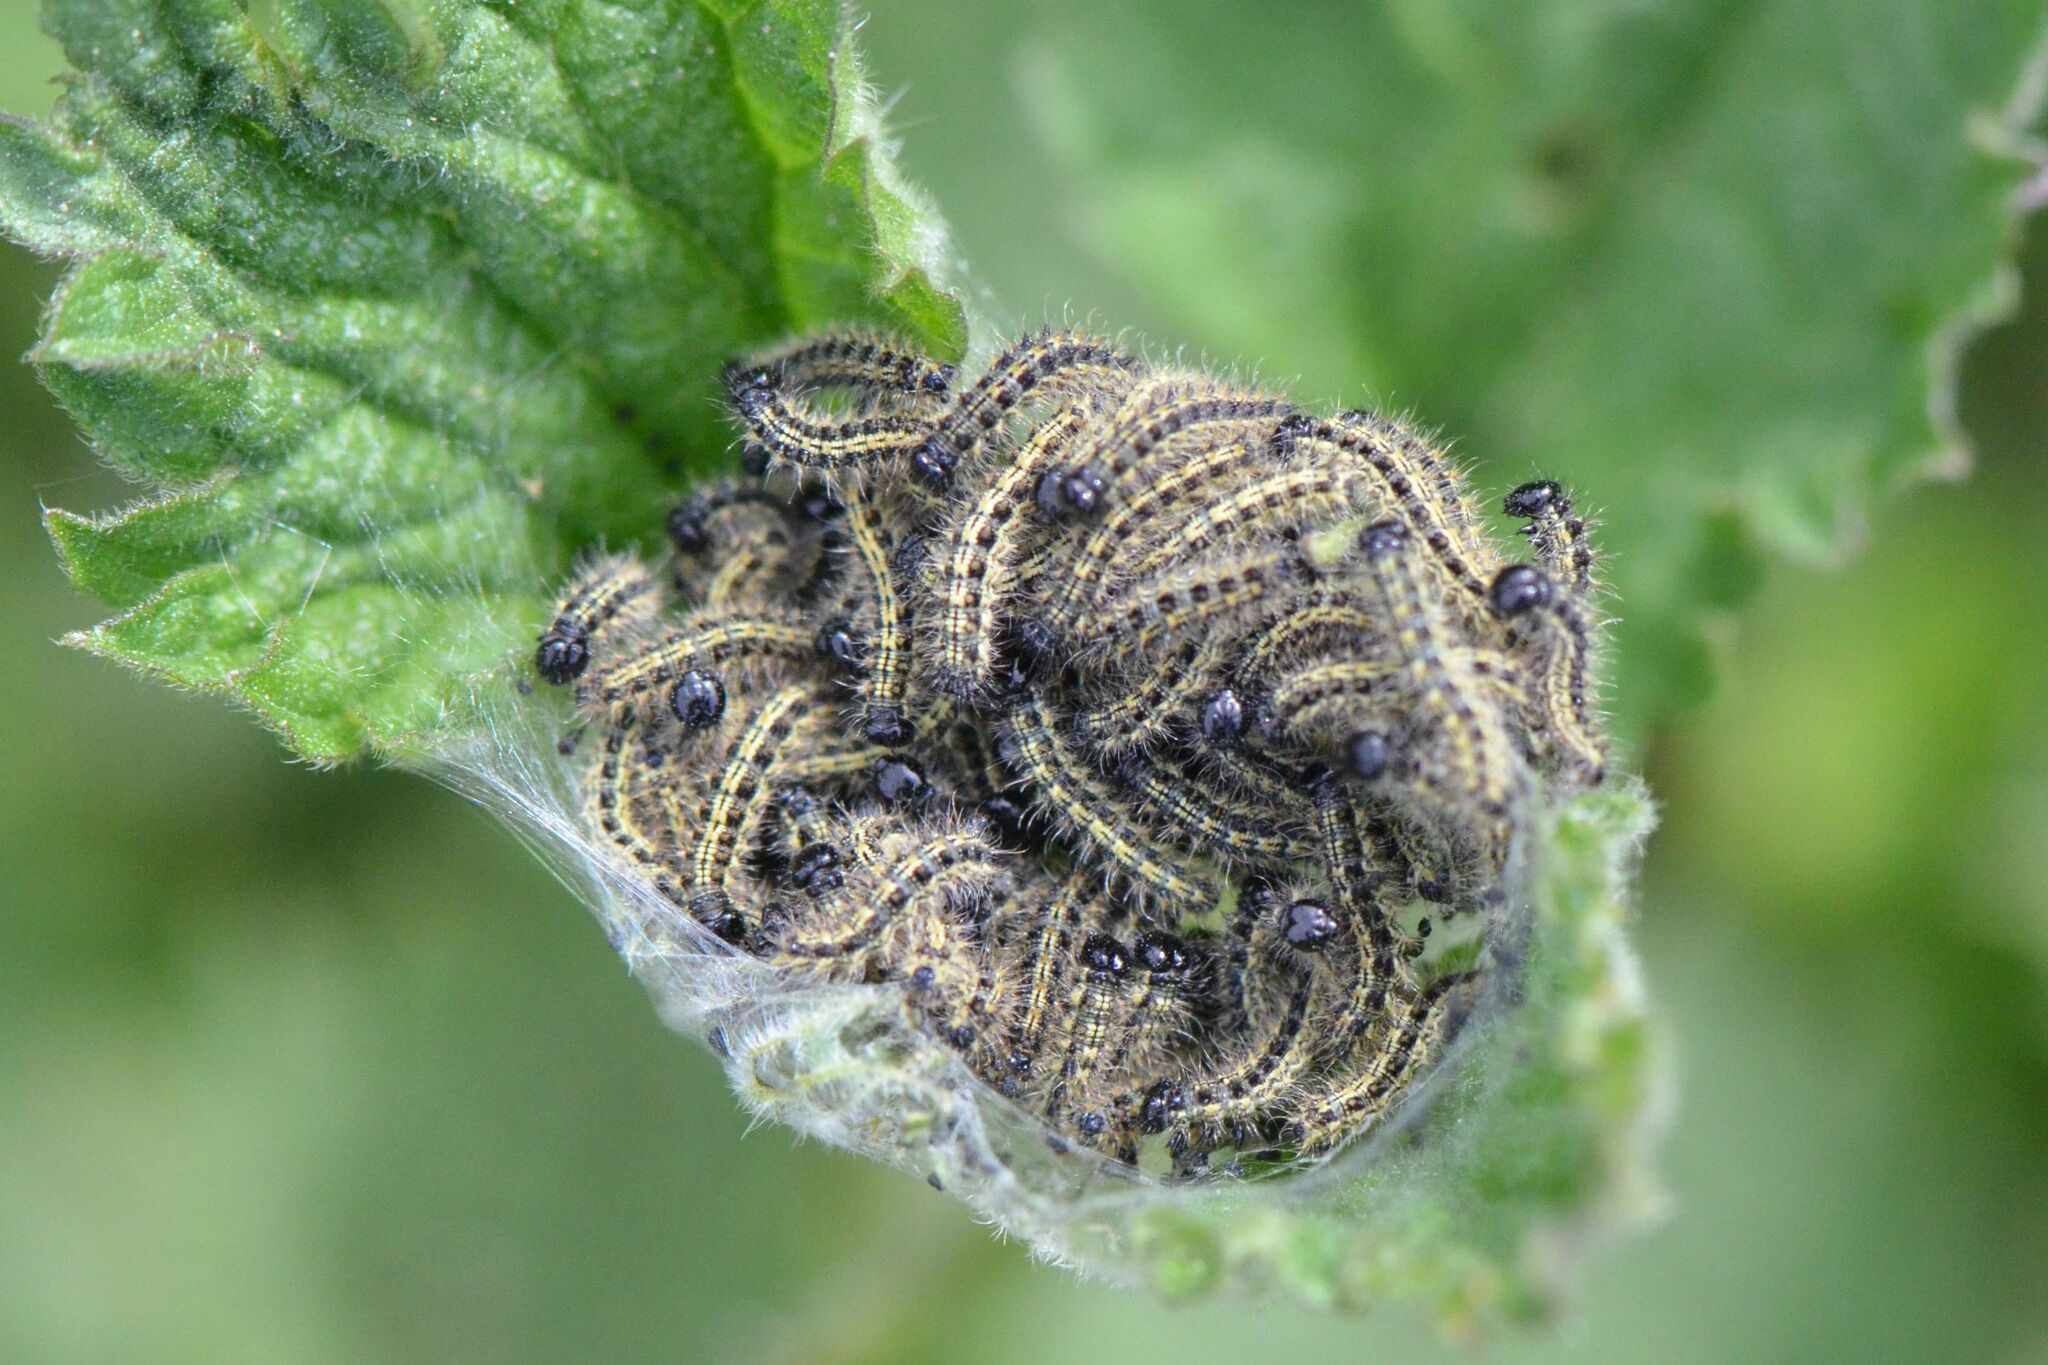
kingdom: Animalia
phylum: Arthropoda
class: Insecta
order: Lepidoptera
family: Nymphalidae
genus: Aglais
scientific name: Aglais urticae
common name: Small tortoiseshell
